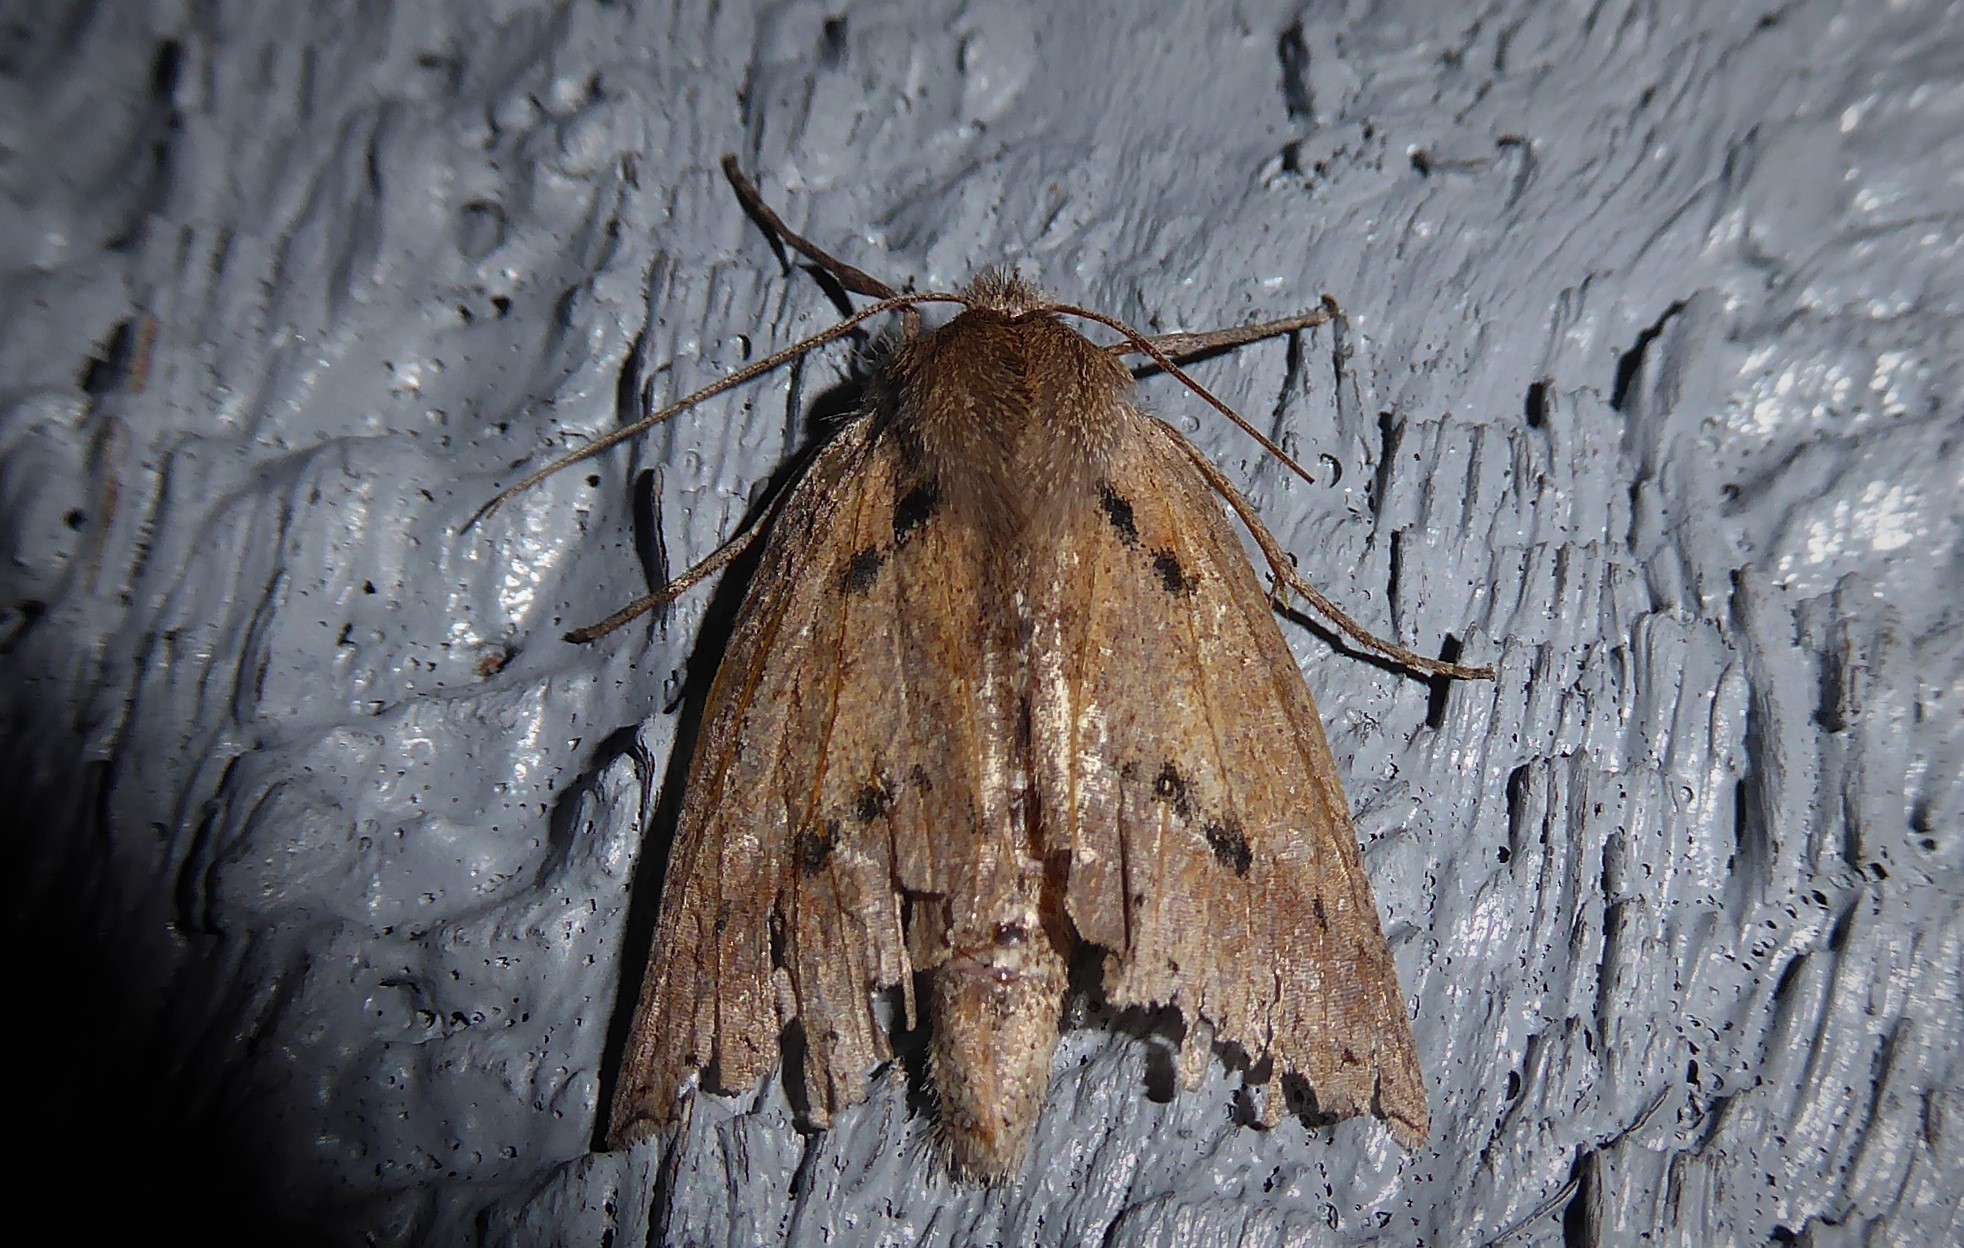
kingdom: Animalia
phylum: Arthropoda
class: Insecta
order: Lepidoptera
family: Geometridae
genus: Declana
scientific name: Declana leptomera
